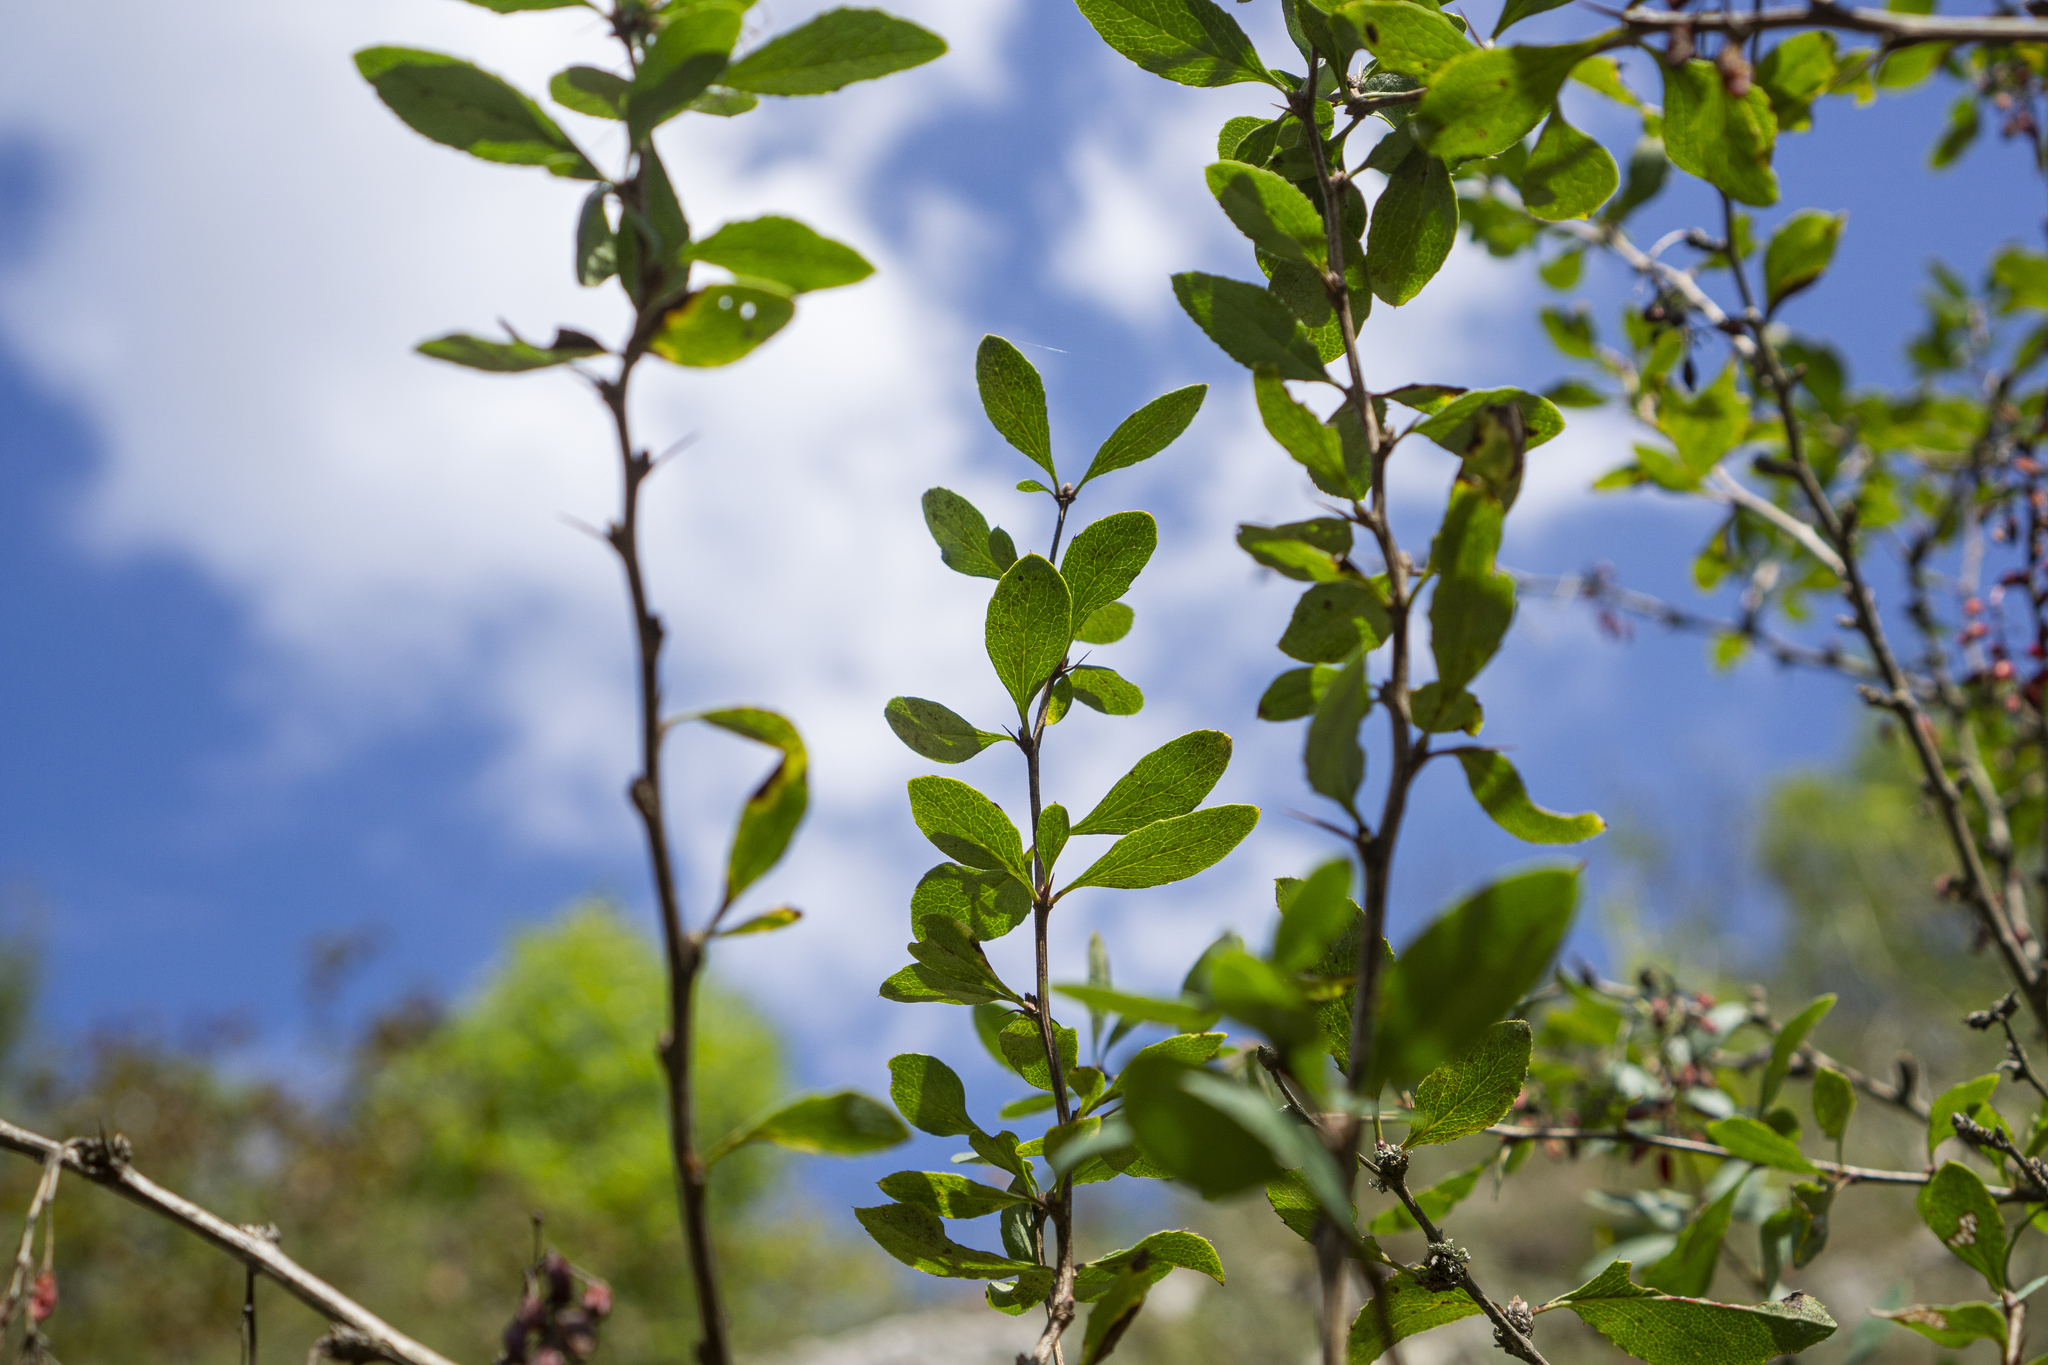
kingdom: Plantae
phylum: Tracheophyta
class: Magnoliopsida
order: Ranunculales
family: Berberidaceae
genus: Berberis
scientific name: Berberis vulgaris
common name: Barberry
